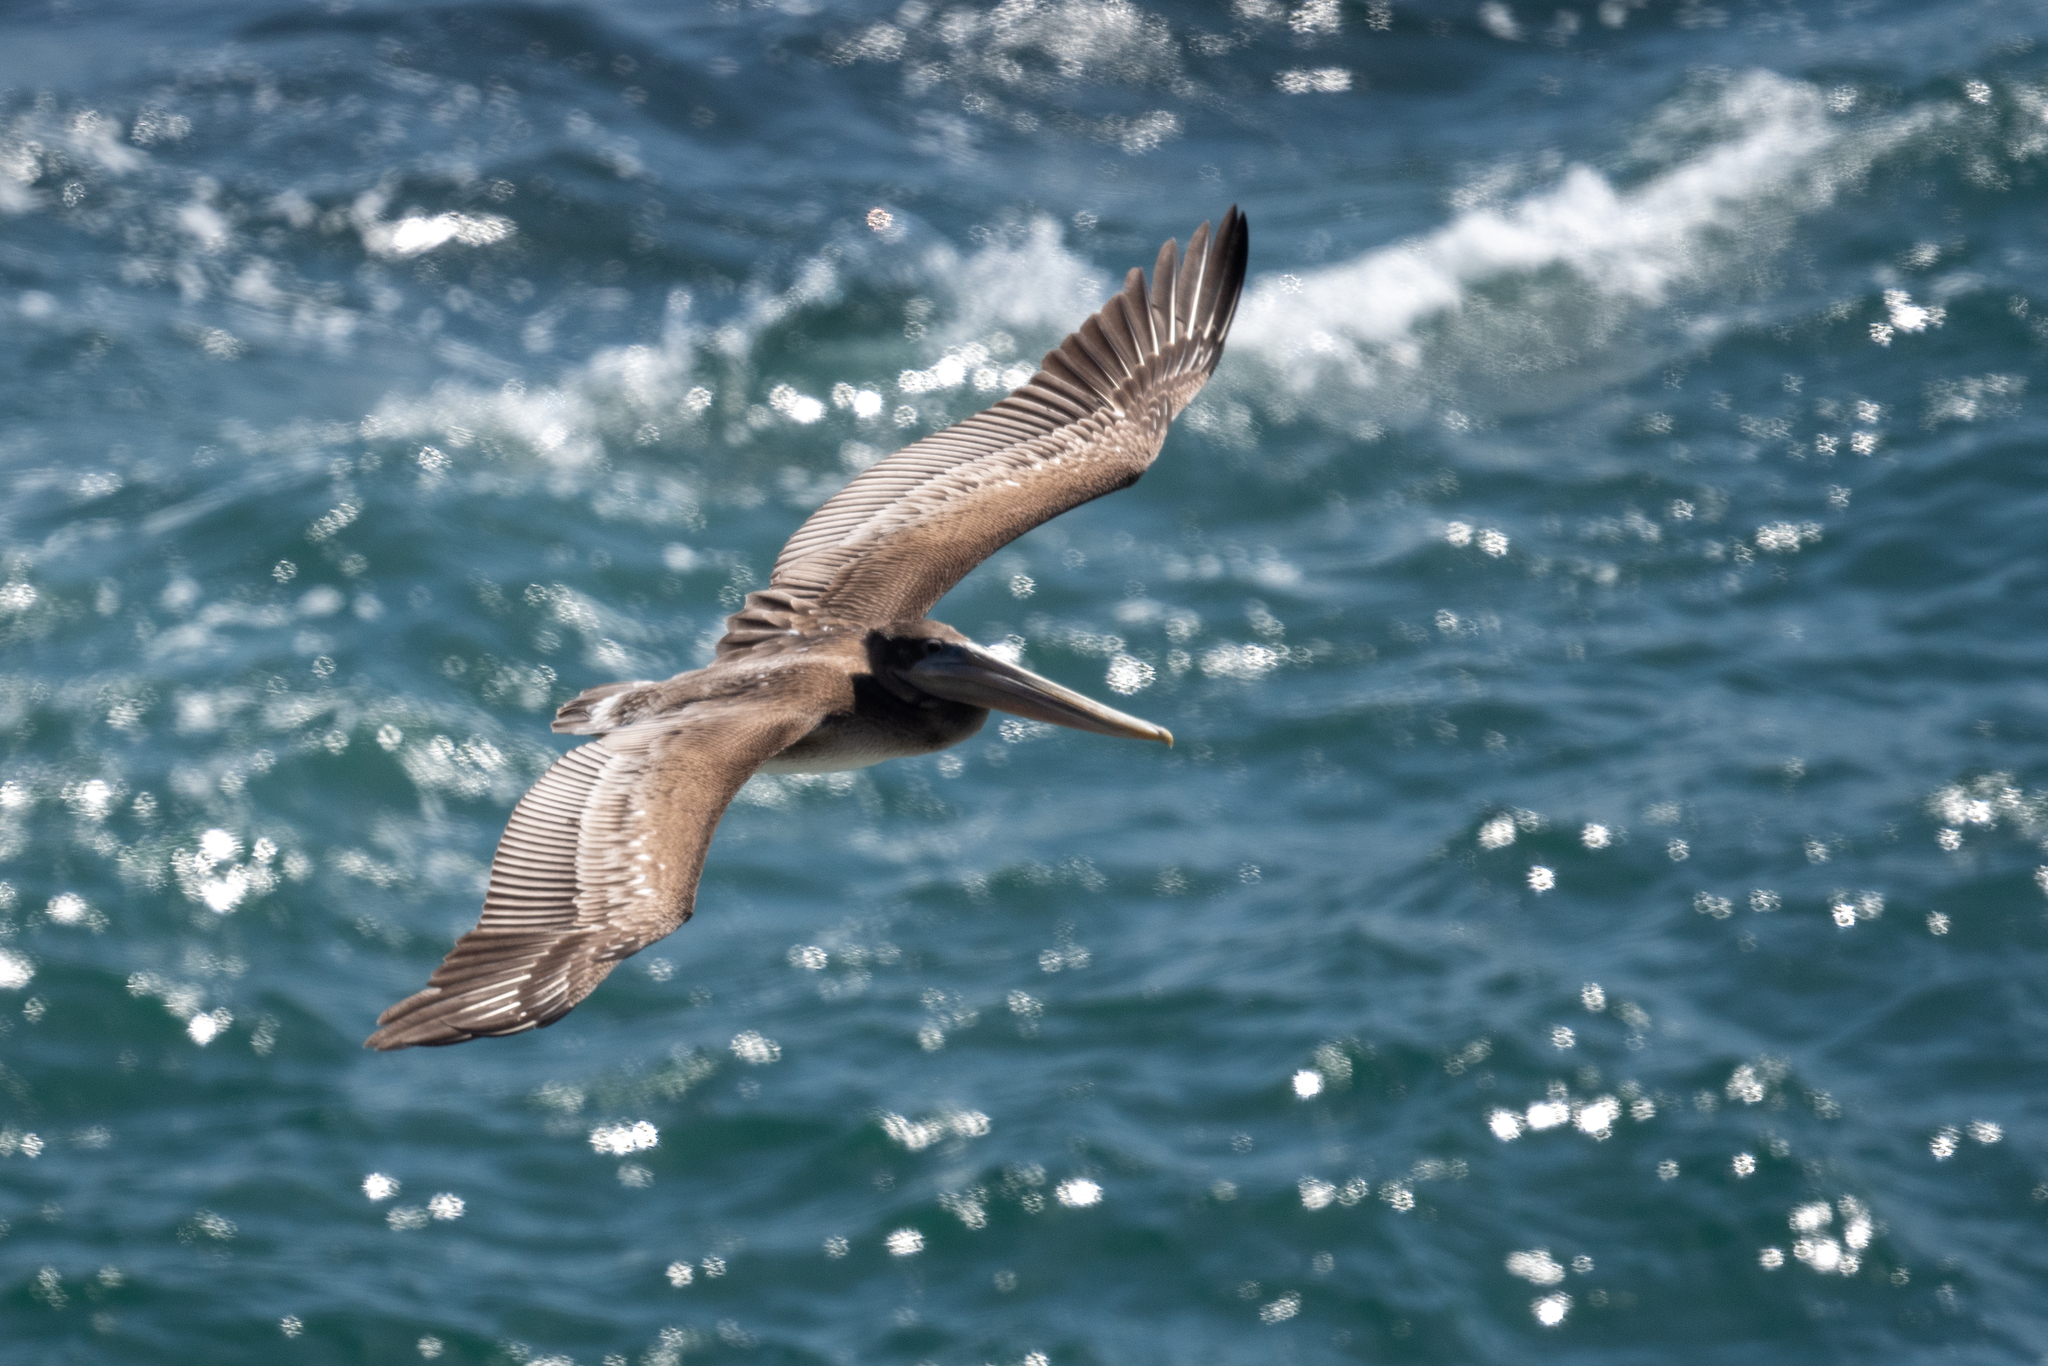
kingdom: Animalia
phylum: Chordata
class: Aves
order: Pelecaniformes
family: Pelecanidae
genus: Pelecanus
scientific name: Pelecanus occidentalis
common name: Brown pelican
